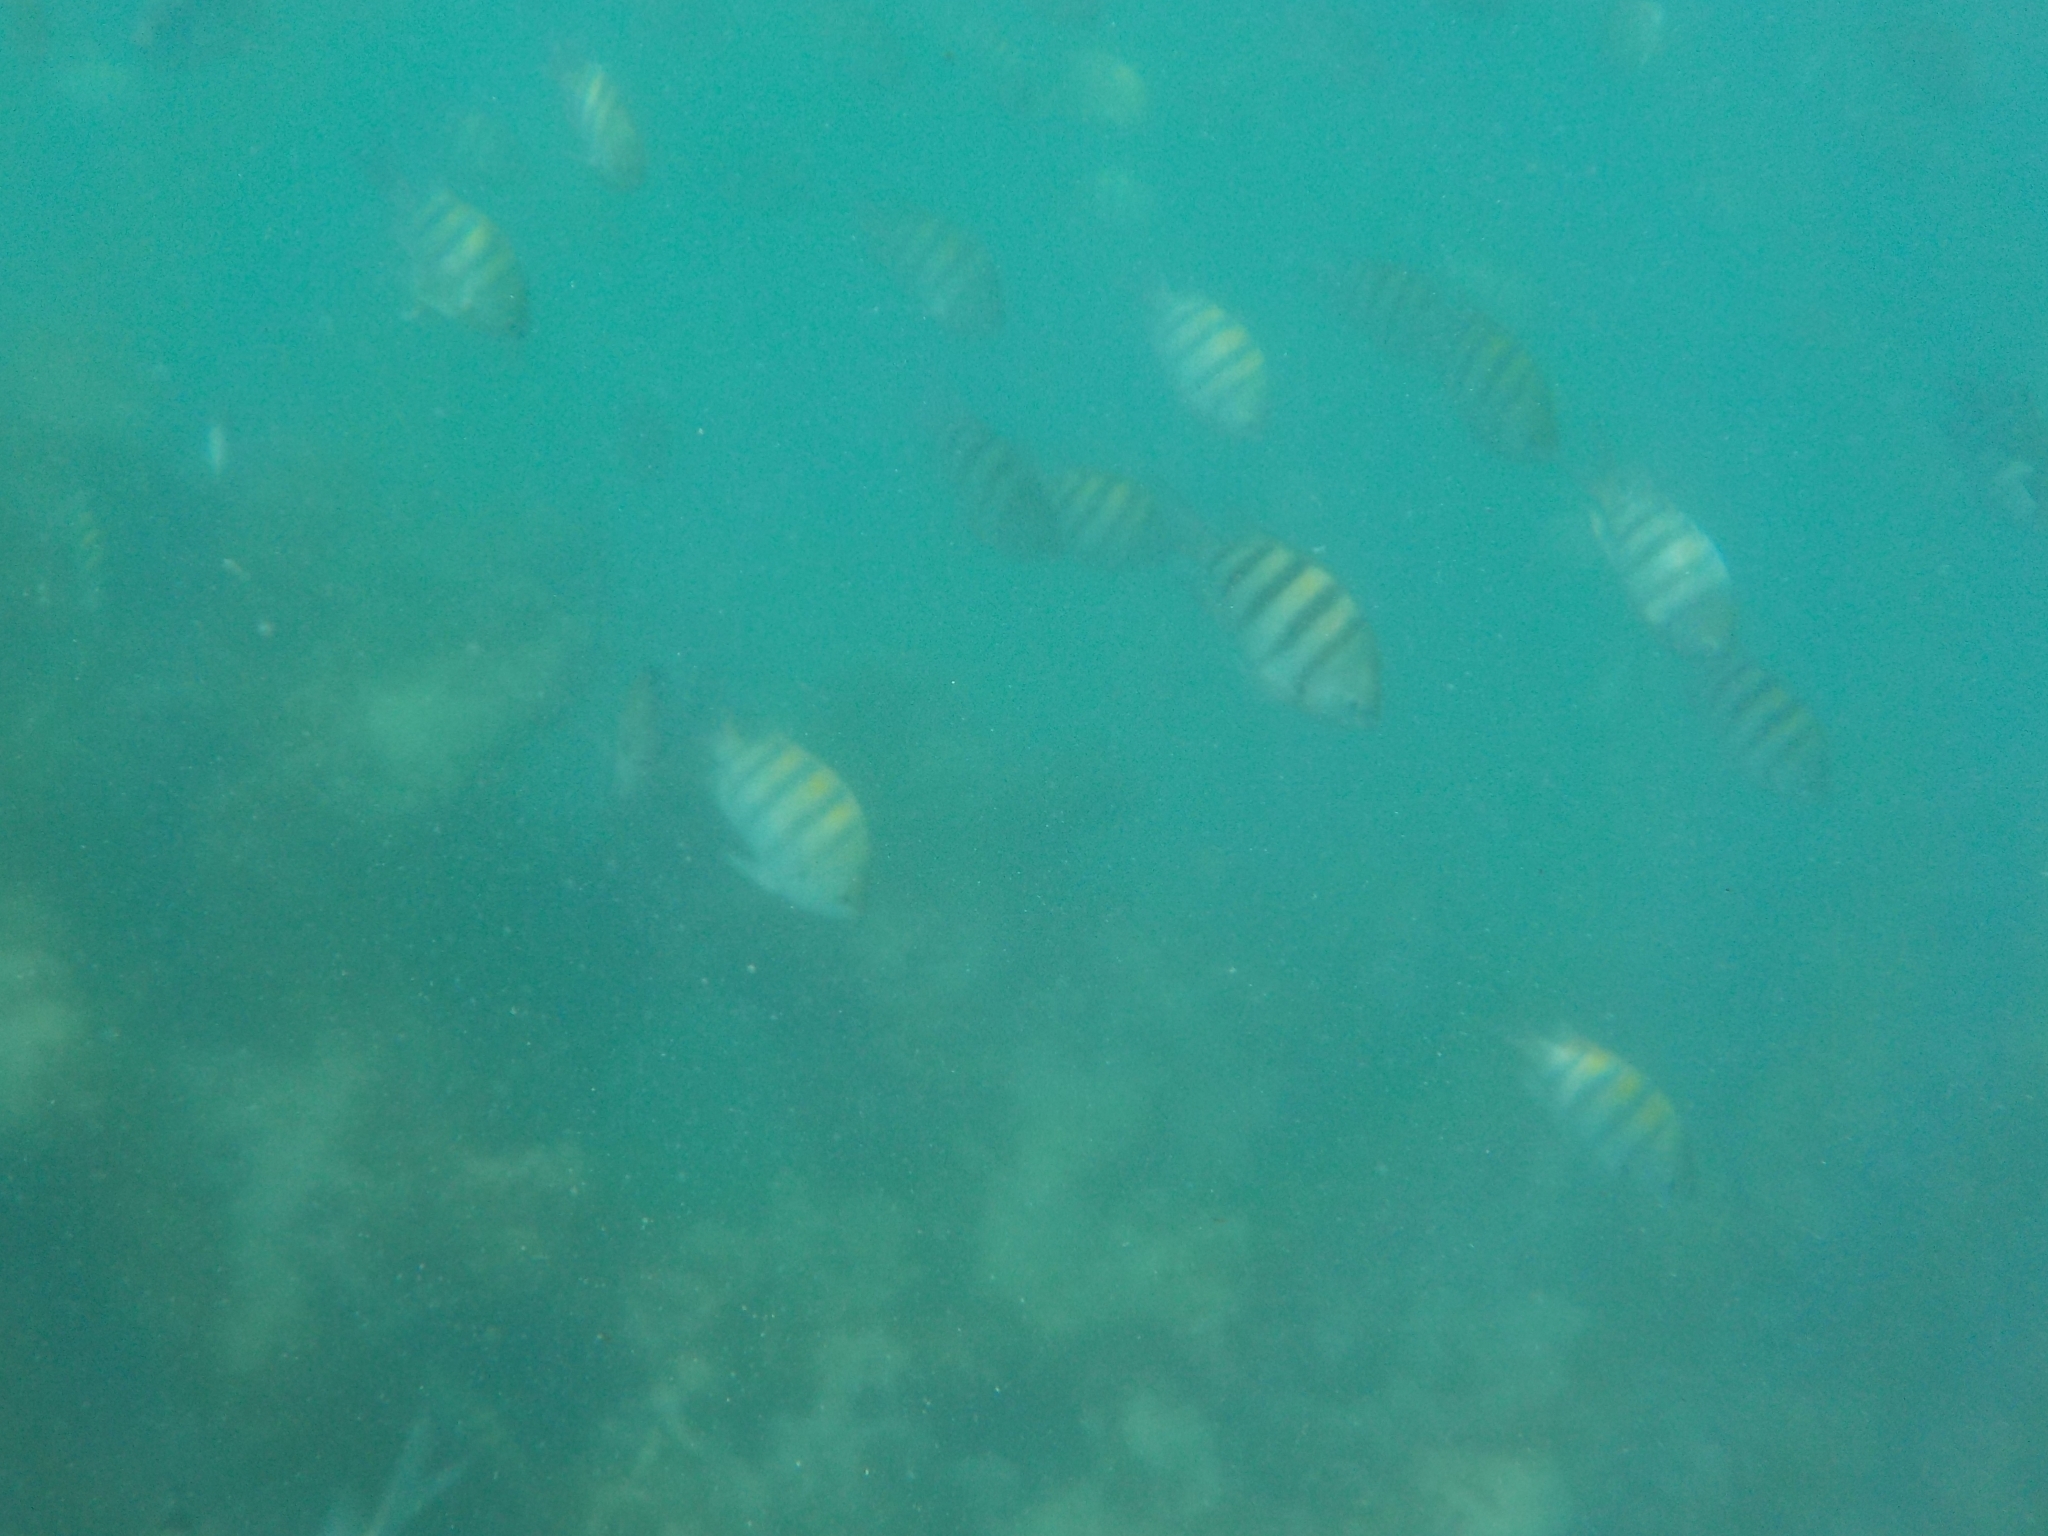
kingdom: Animalia
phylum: Chordata
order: Perciformes
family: Pomacentridae
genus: Abudefduf
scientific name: Abudefduf saxatilis
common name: Sergeant major
